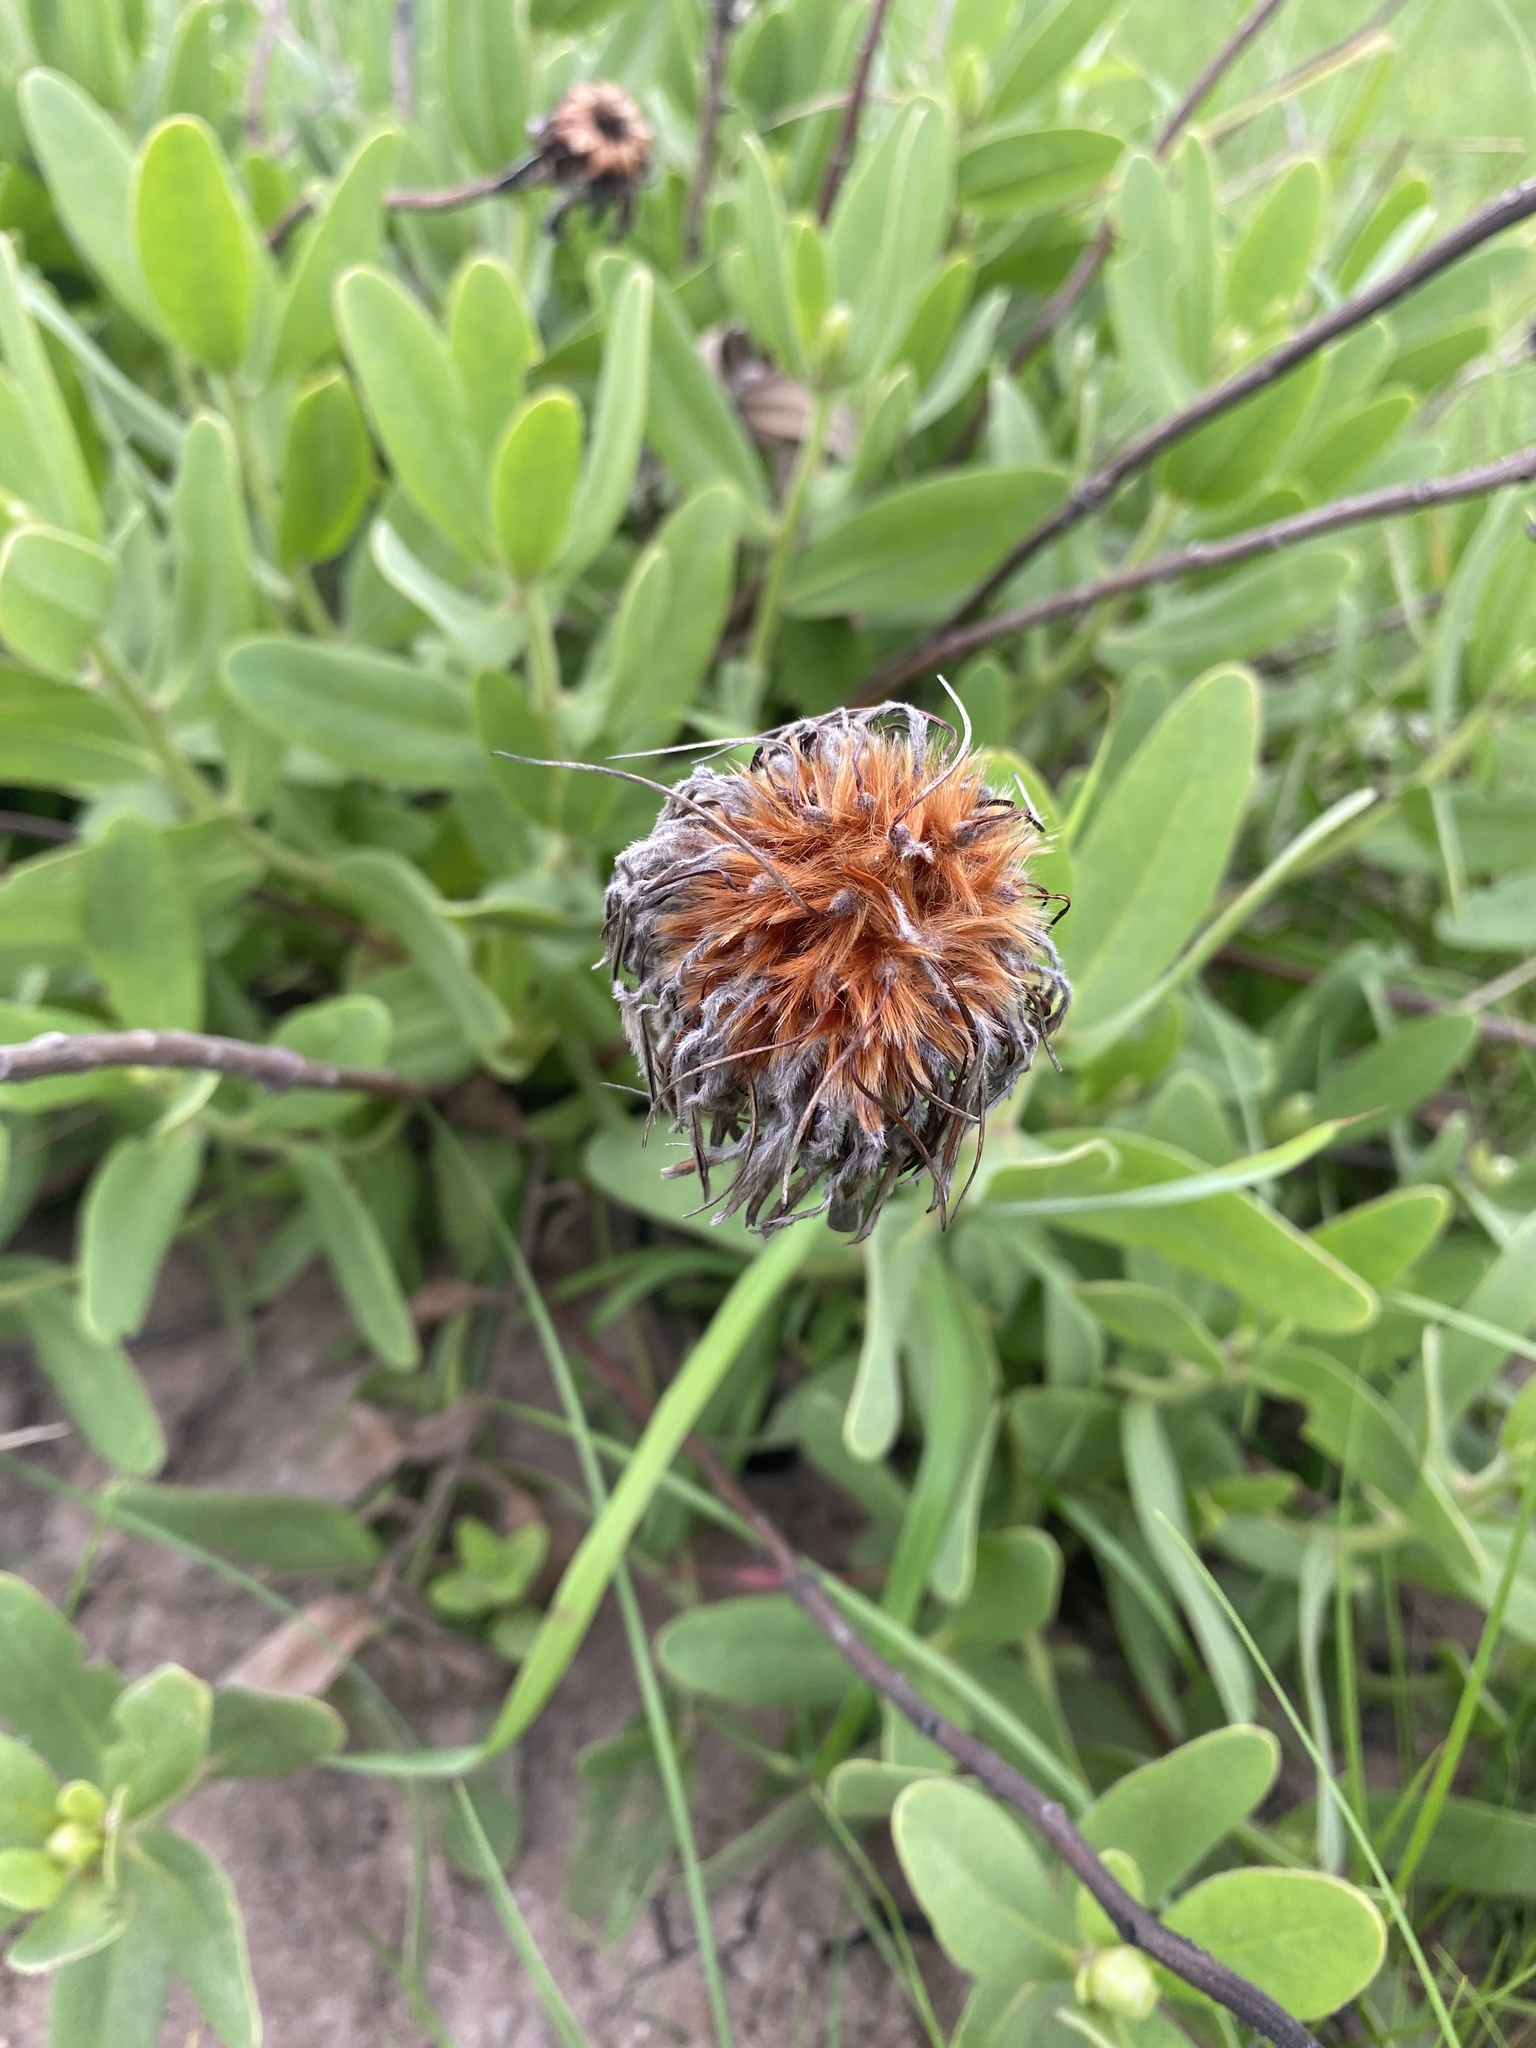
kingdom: Plantae
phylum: Tracheophyta
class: Magnoliopsida
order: Proteales
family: Proteaceae
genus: Protea
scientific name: Protea welwitschii
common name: Cluster-head protea
